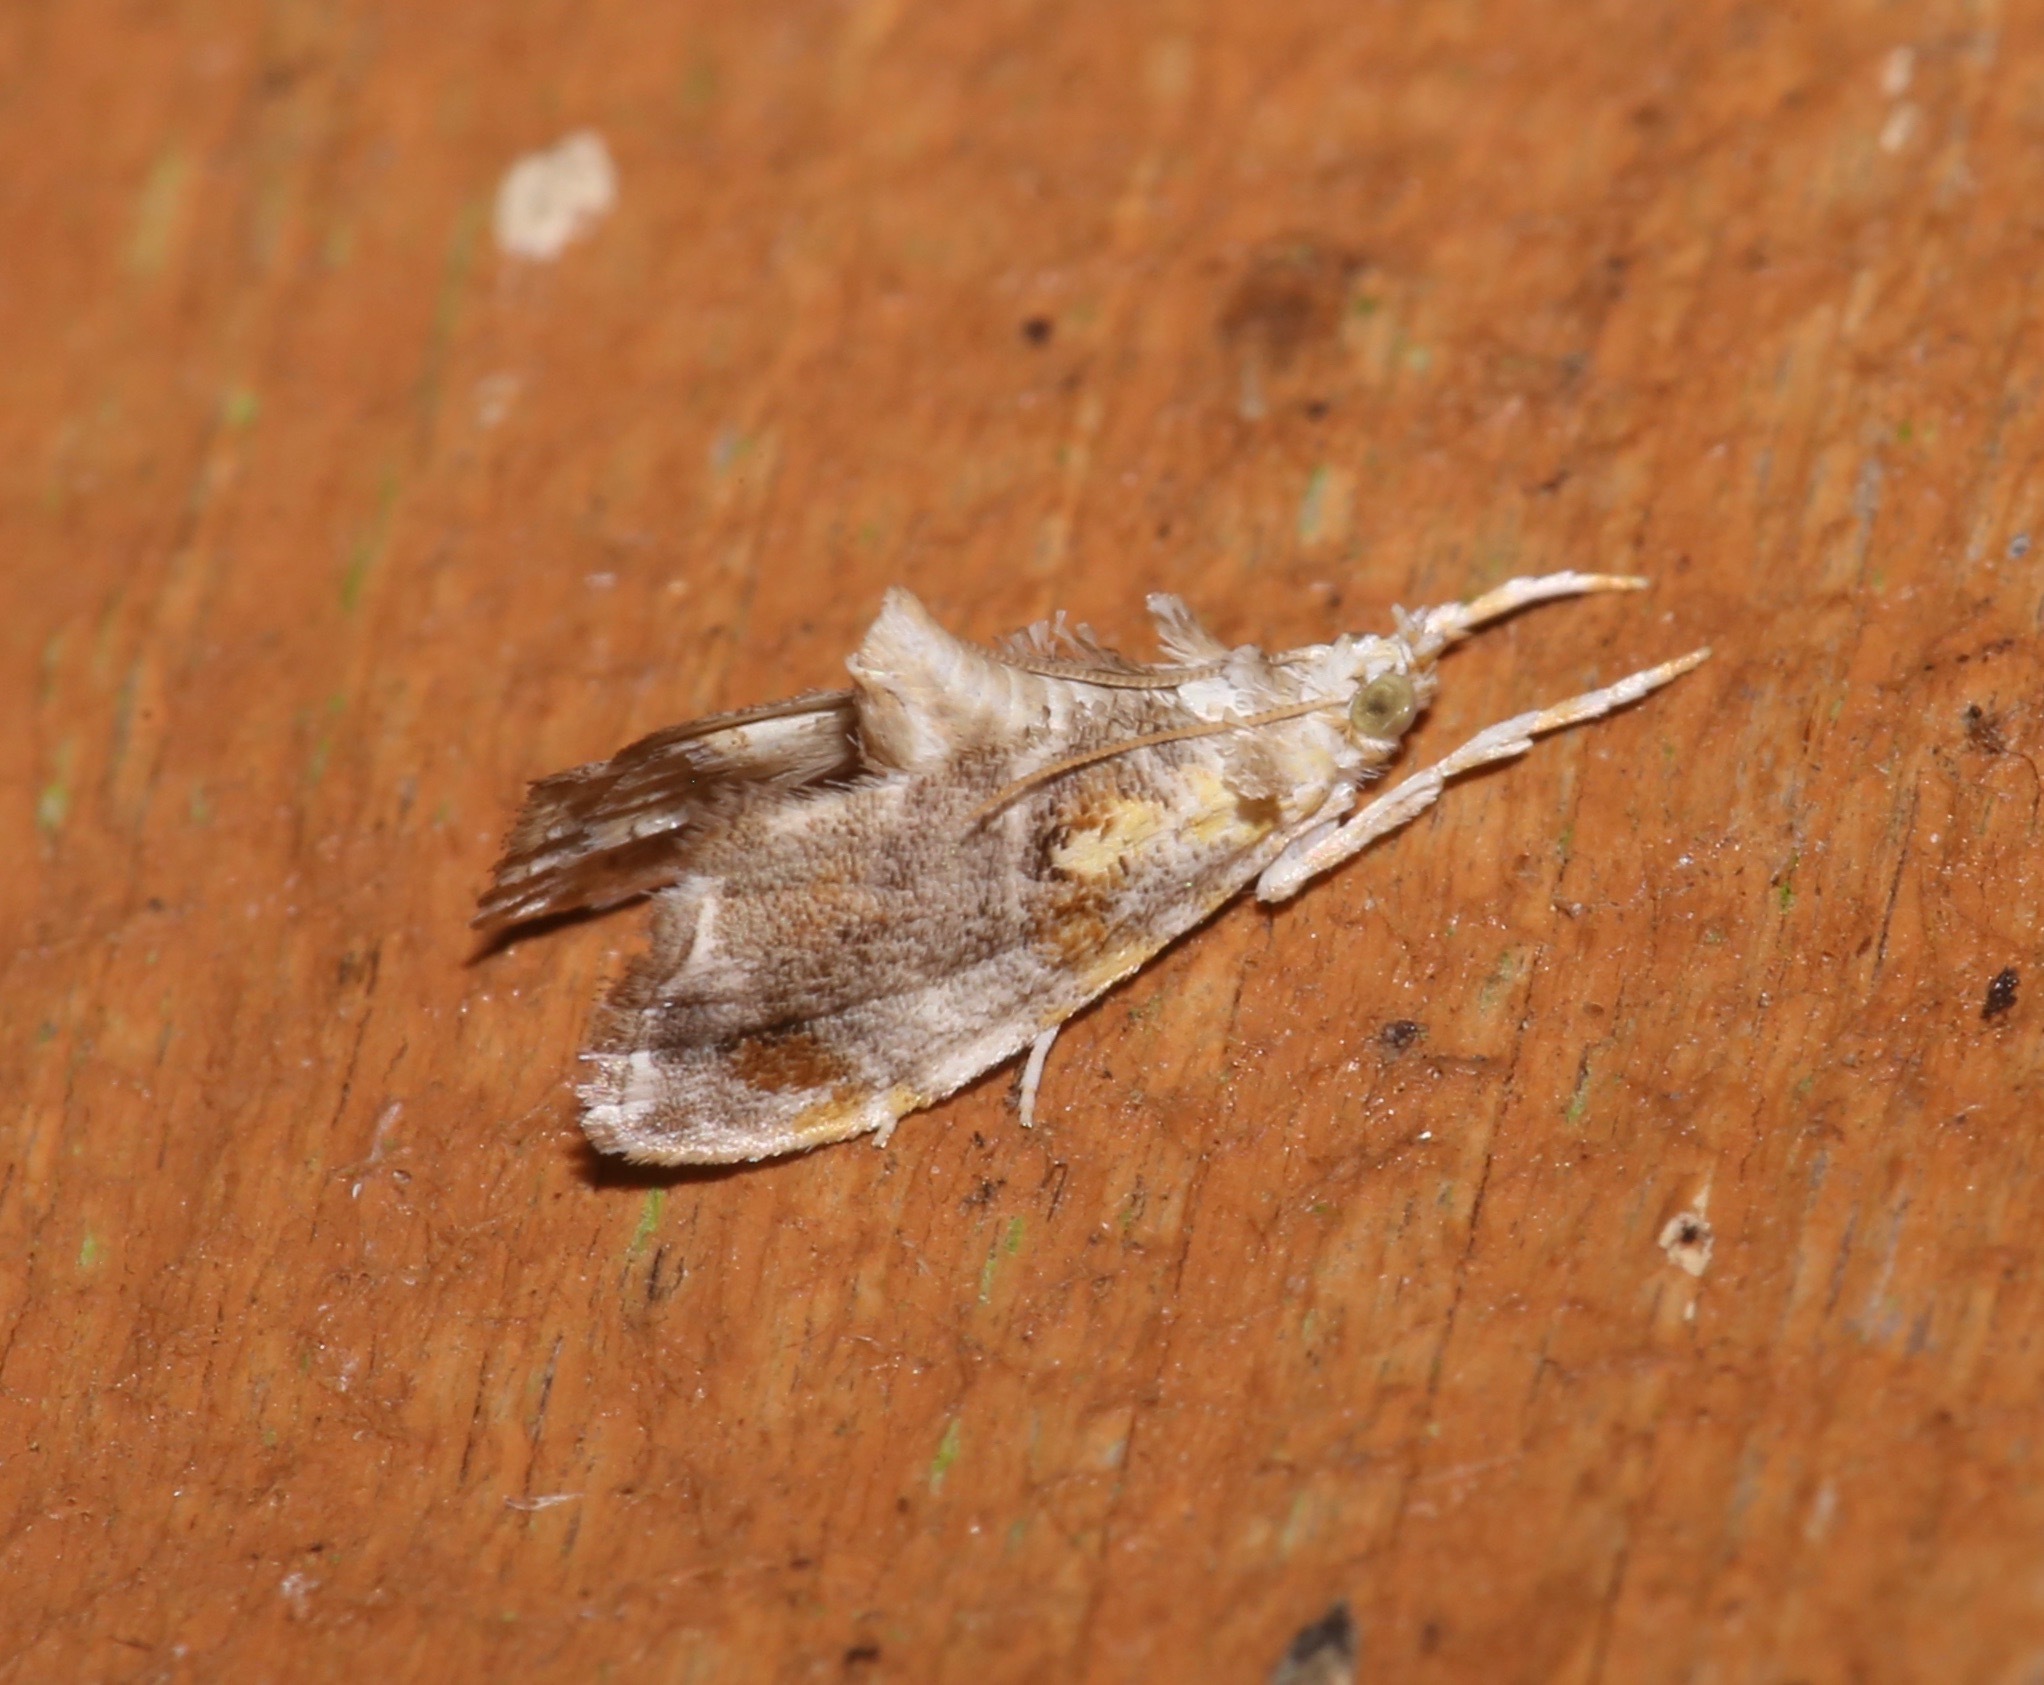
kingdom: Animalia
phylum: Arthropoda
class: Insecta
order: Lepidoptera
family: Crambidae
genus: Glaphyria
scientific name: Glaphyria basiflavalis
